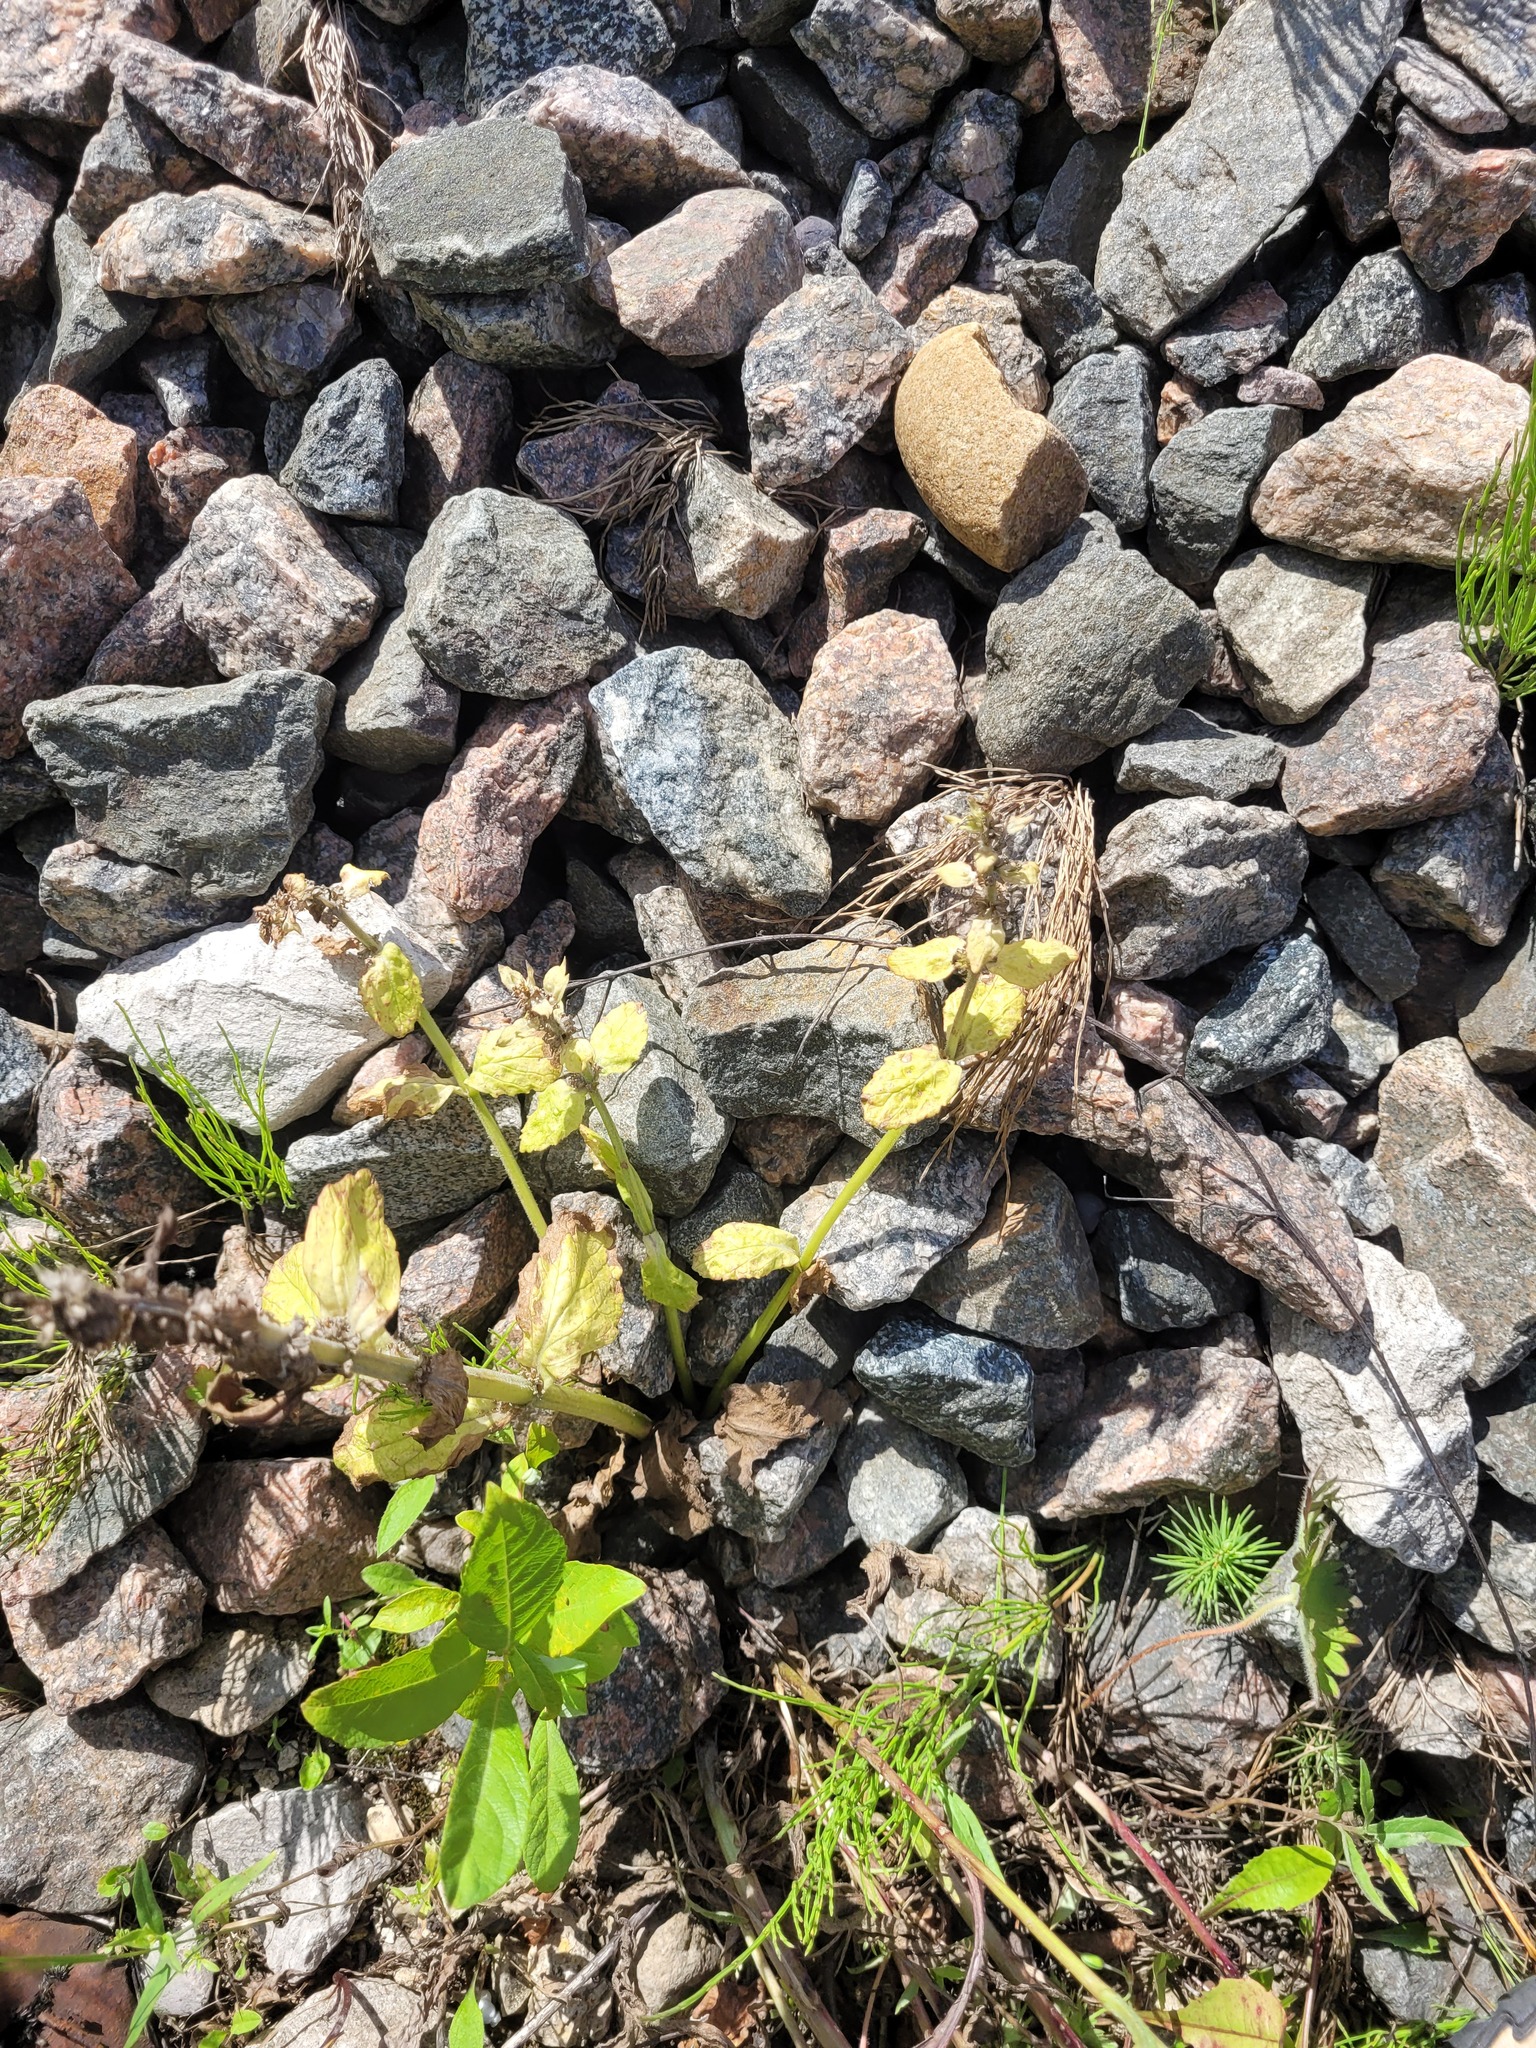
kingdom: Plantae
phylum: Tracheophyta
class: Magnoliopsida
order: Lamiales
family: Lamiaceae
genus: Ajuga
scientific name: Ajuga reptans
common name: Bugle
